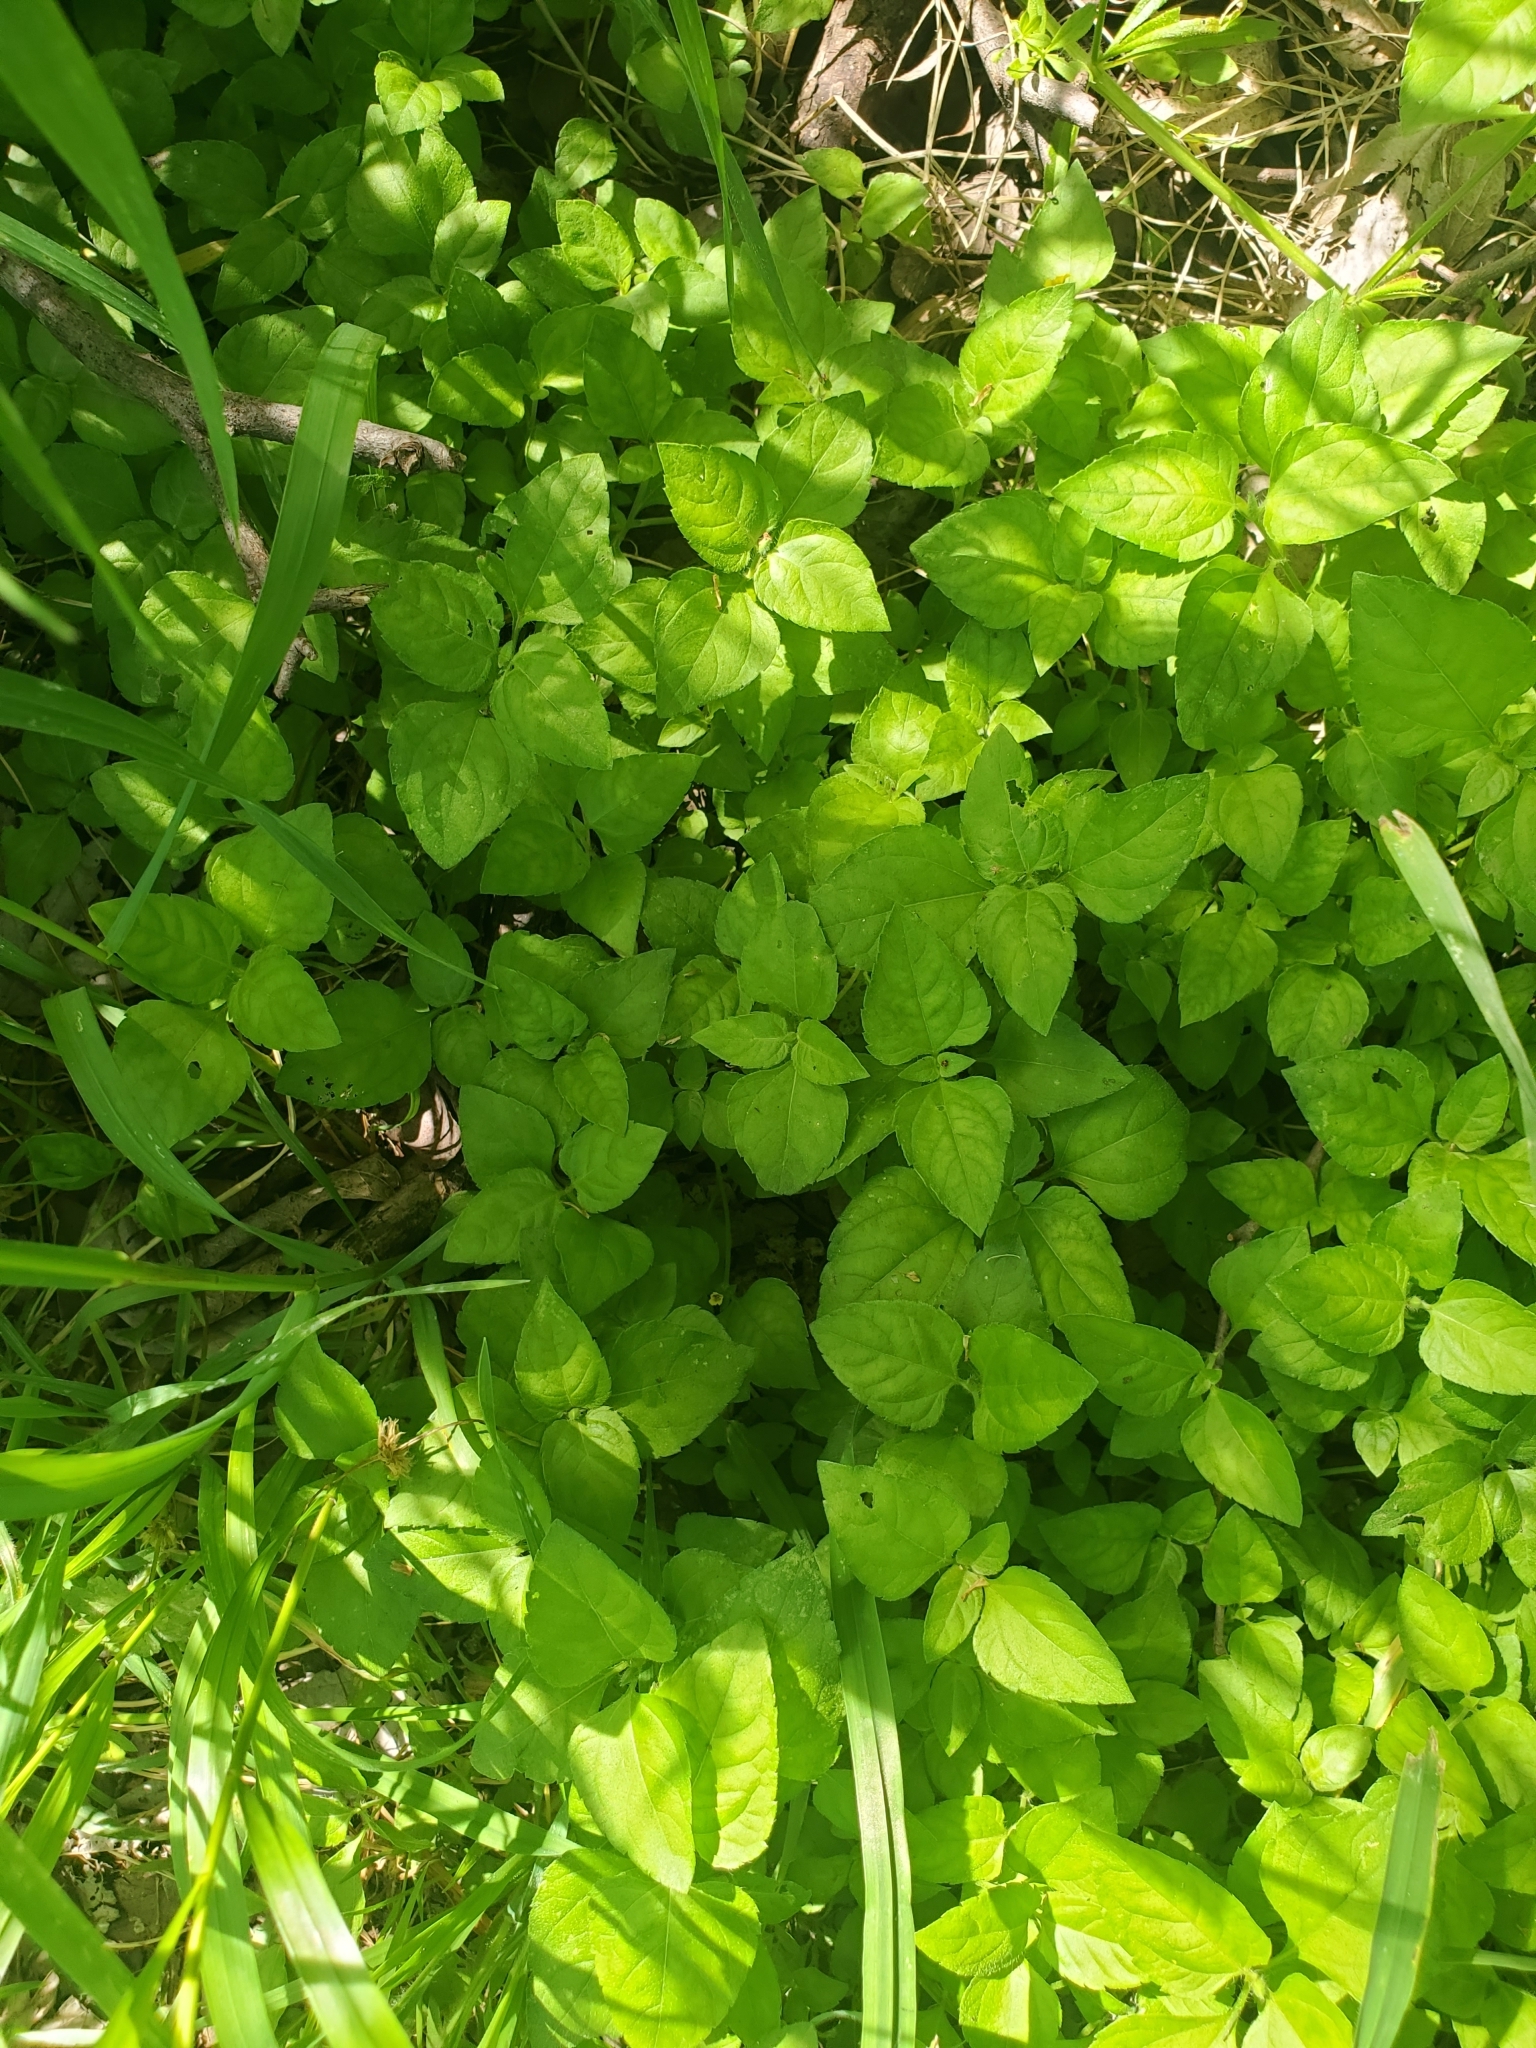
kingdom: Plantae
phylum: Tracheophyta
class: Magnoliopsida
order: Asterales
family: Asteraceae
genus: Calyptocarpus
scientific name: Calyptocarpus vialis
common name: Straggler daisy
